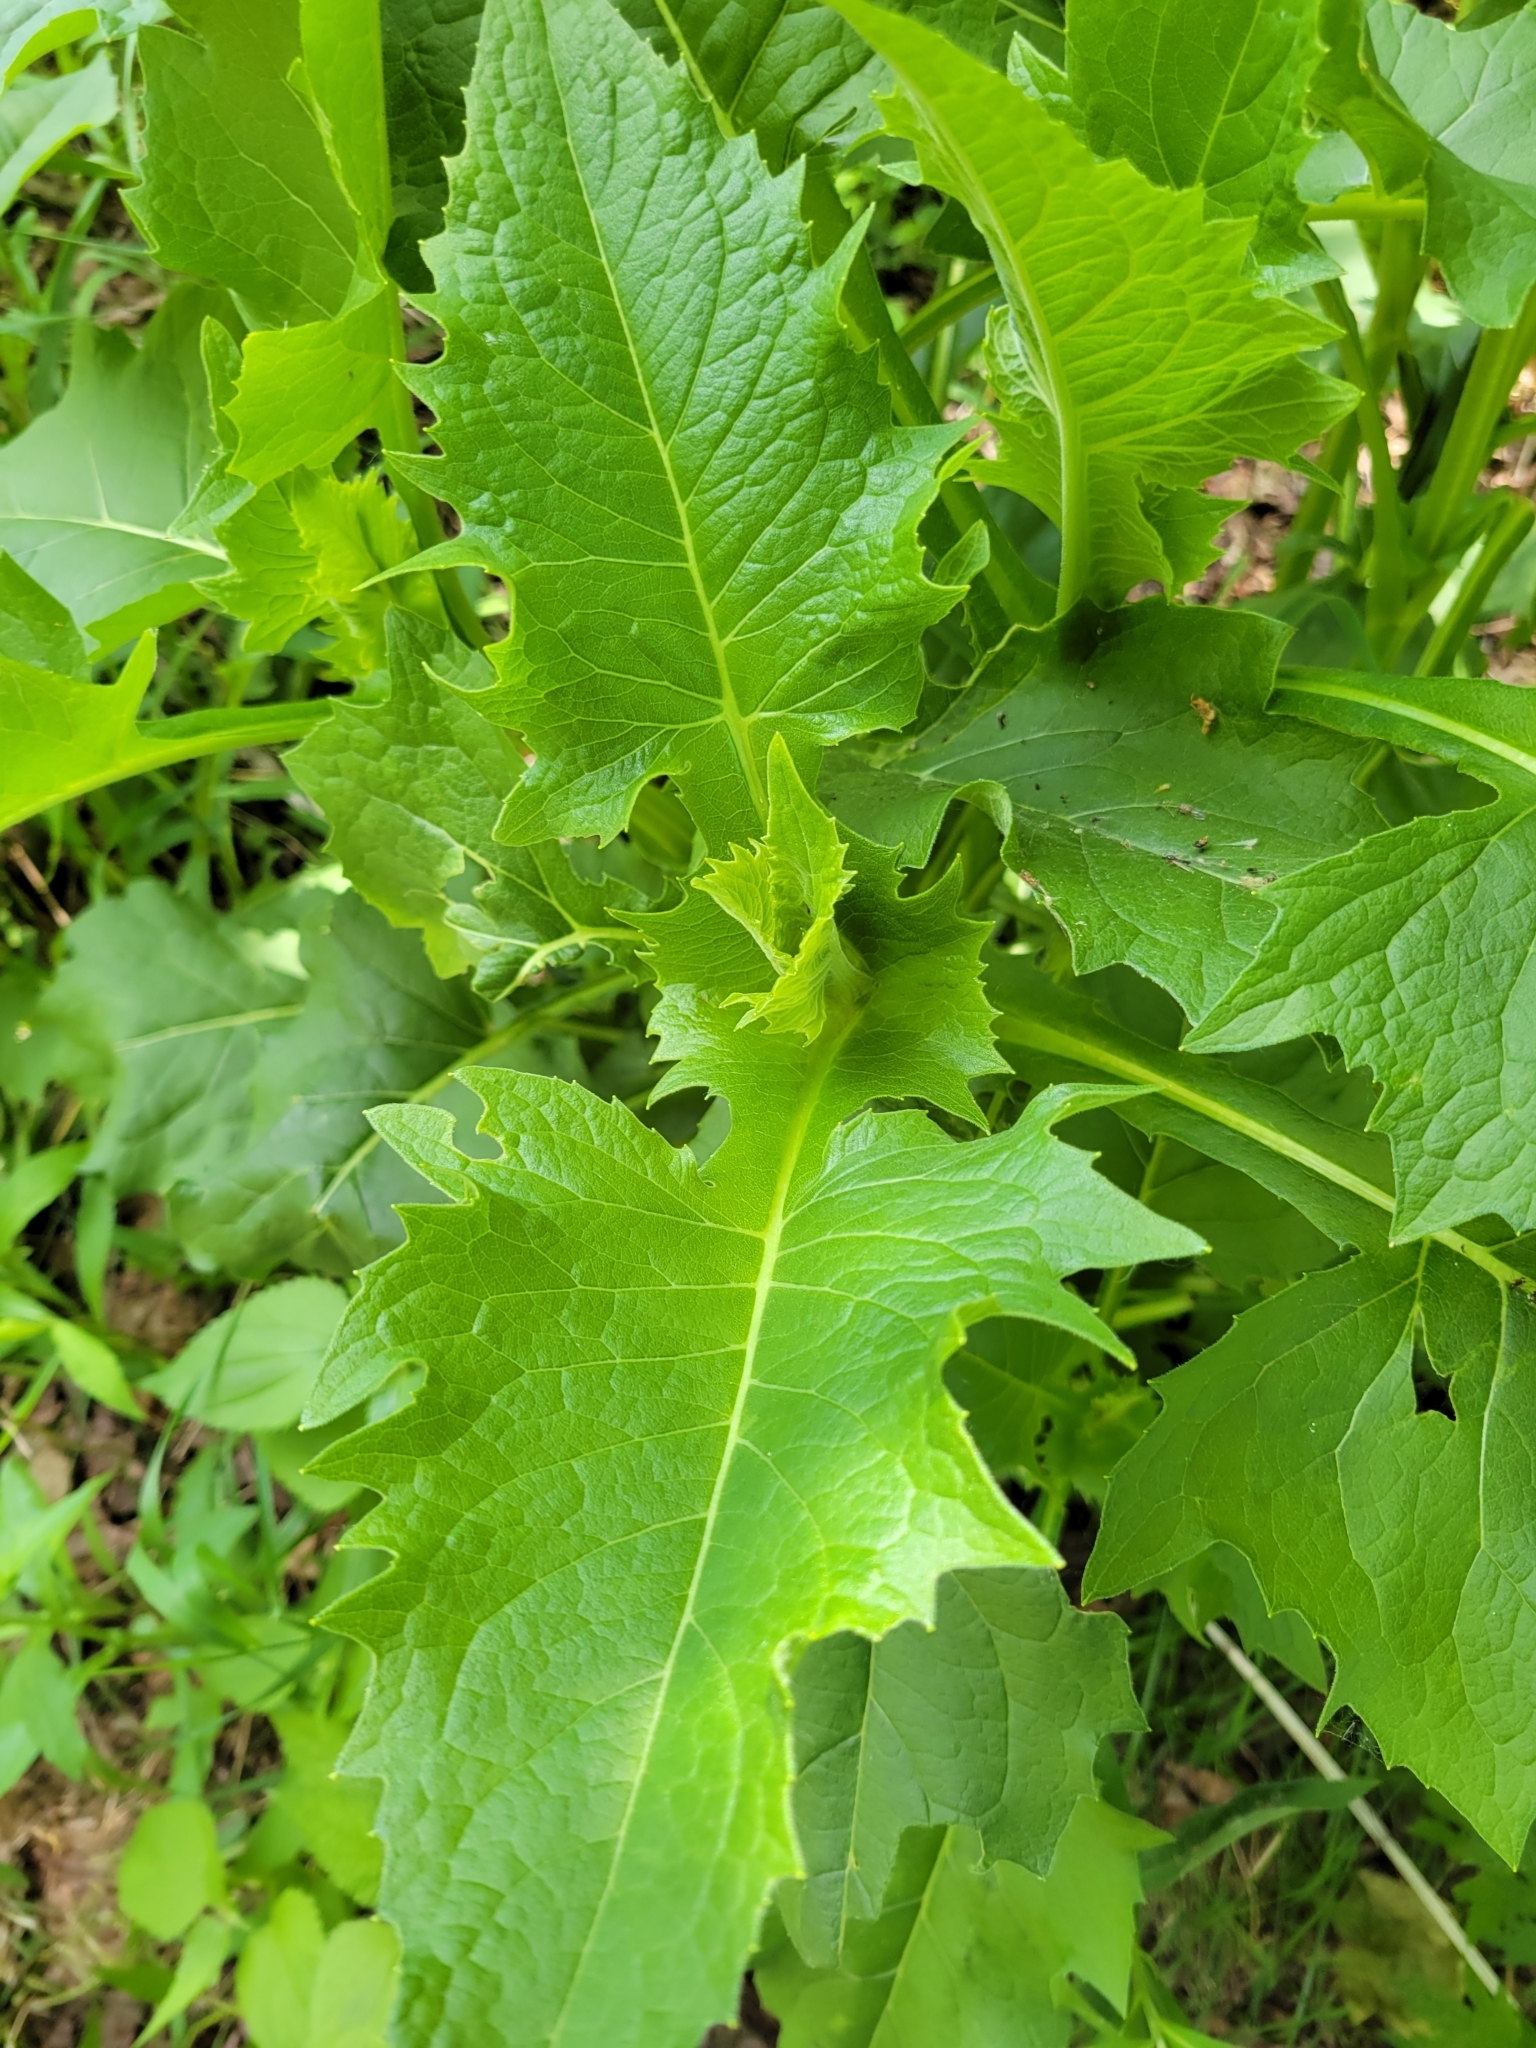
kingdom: Plantae
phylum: Tracheophyta
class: Magnoliopsida
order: Asterales
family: Asteraceae
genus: Silphium
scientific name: Silphium perfoliatum
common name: Cup-plant
